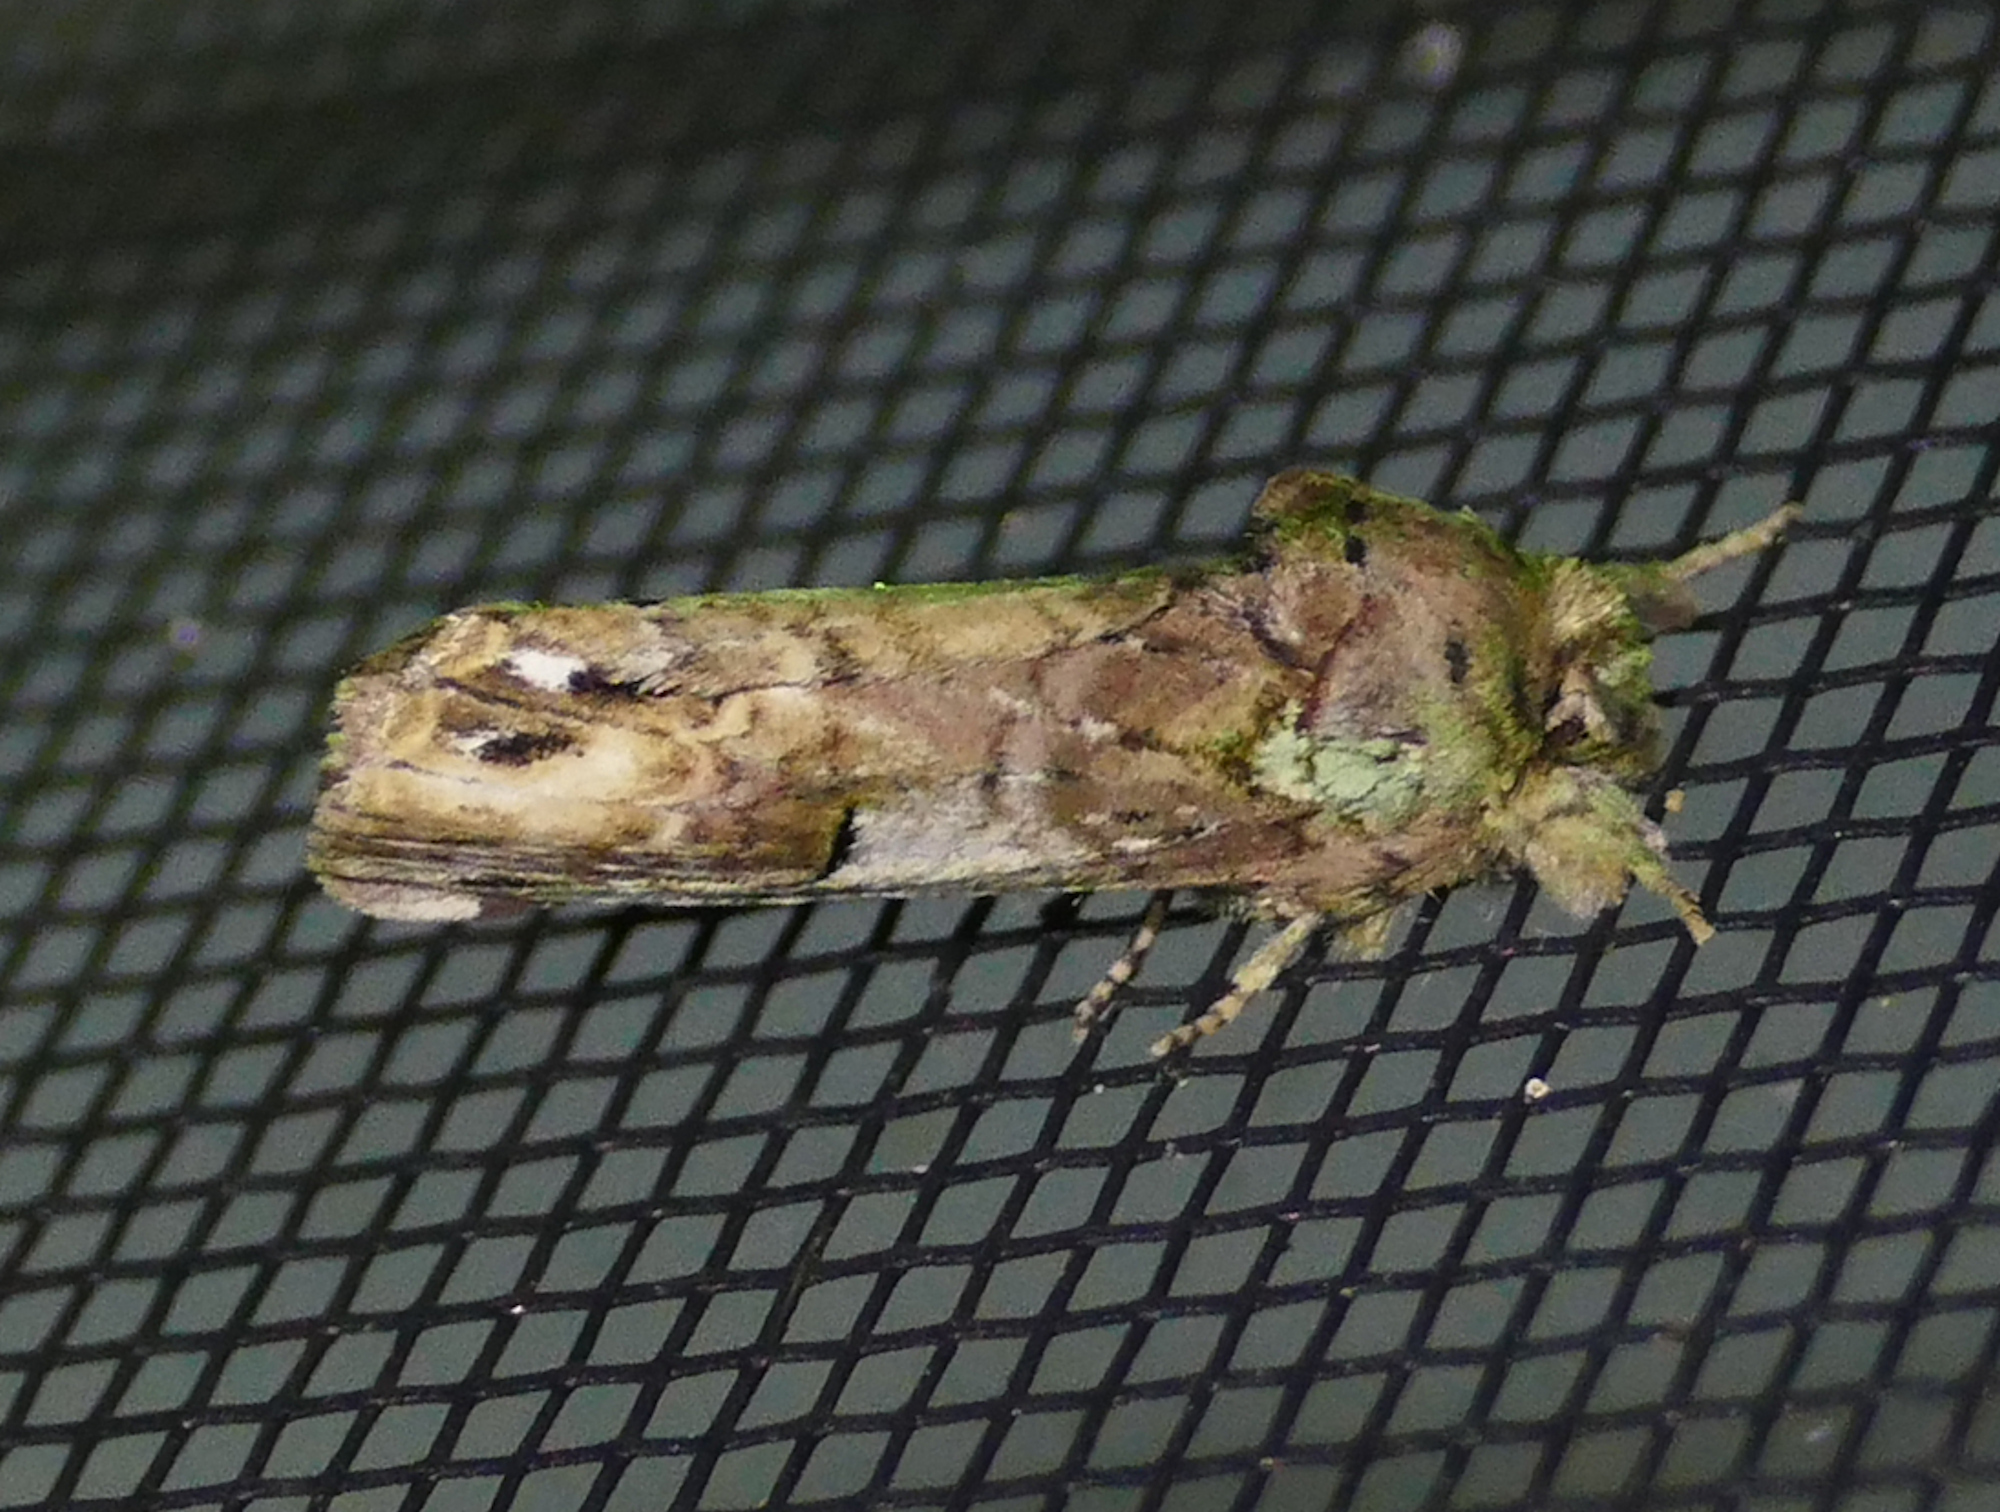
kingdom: Animalia
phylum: Arthropoda
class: Insecta
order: Lepidoptera
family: Notodontidae
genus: Schizura
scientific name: Schizura
